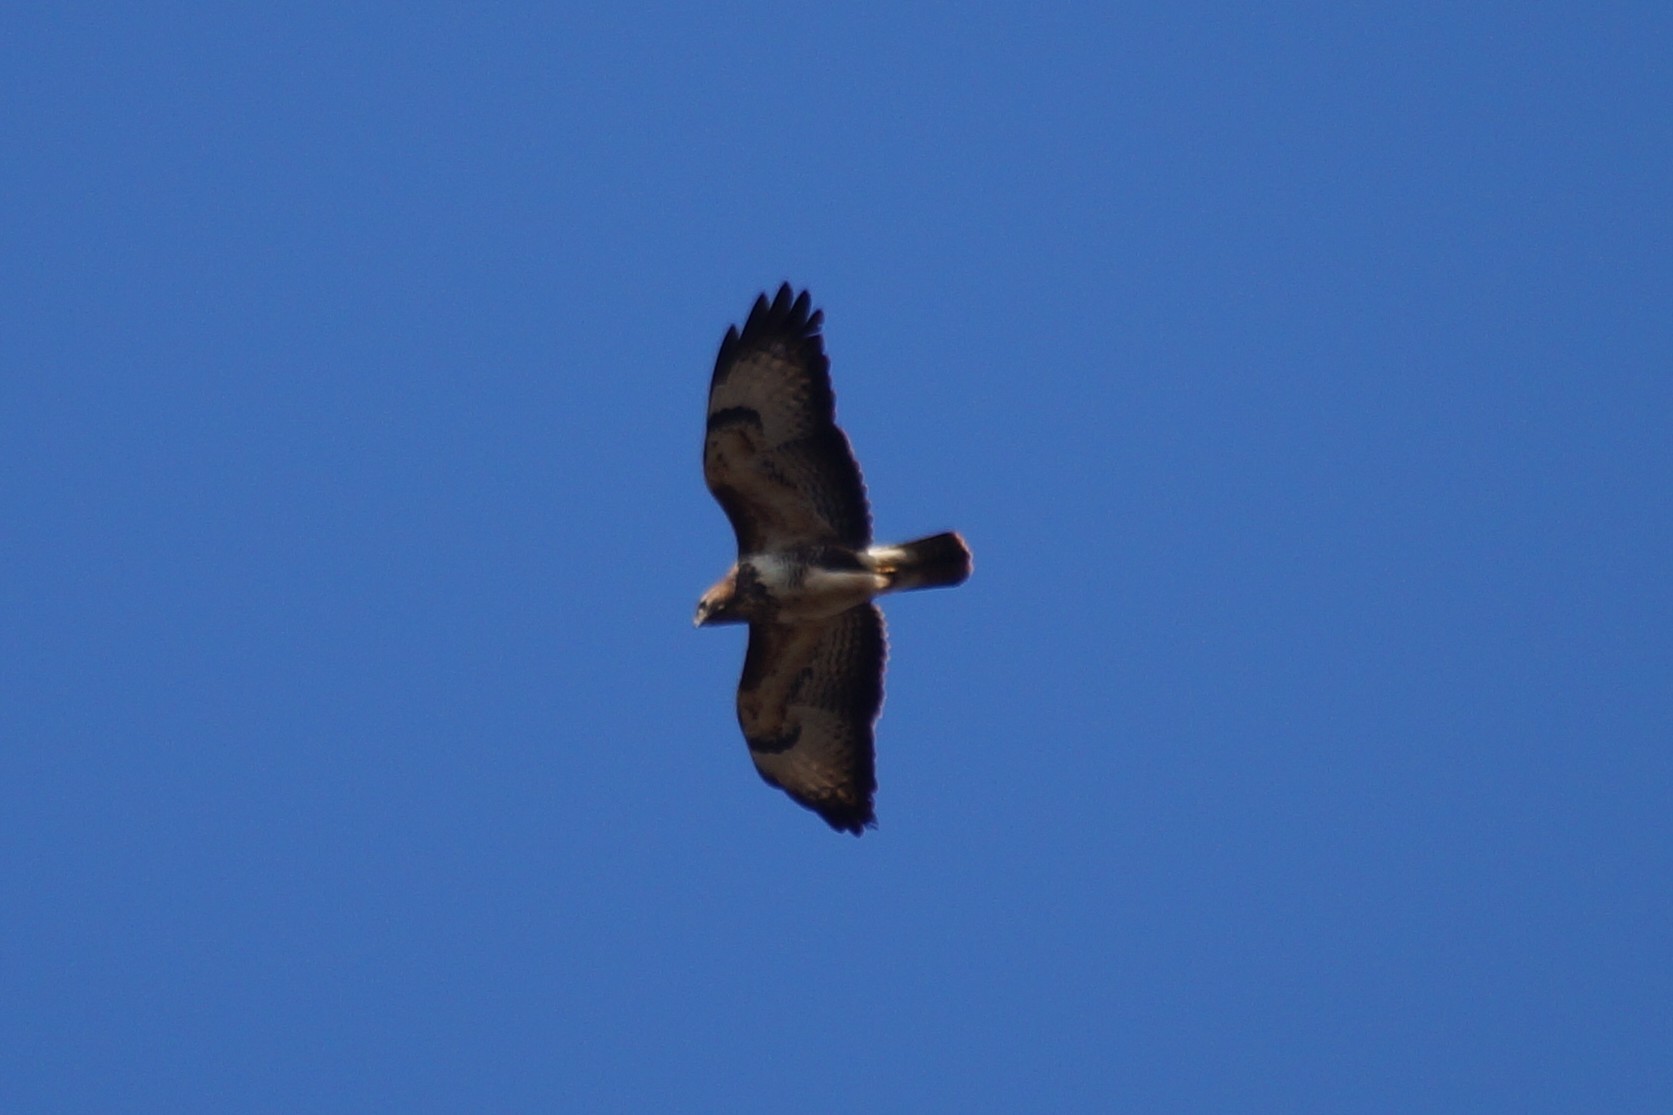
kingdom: Animalia
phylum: Chordata
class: Aves
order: Accipitriformes
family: Accipitridae
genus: Buteo
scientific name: Buteo buteo
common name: Common buzzard
